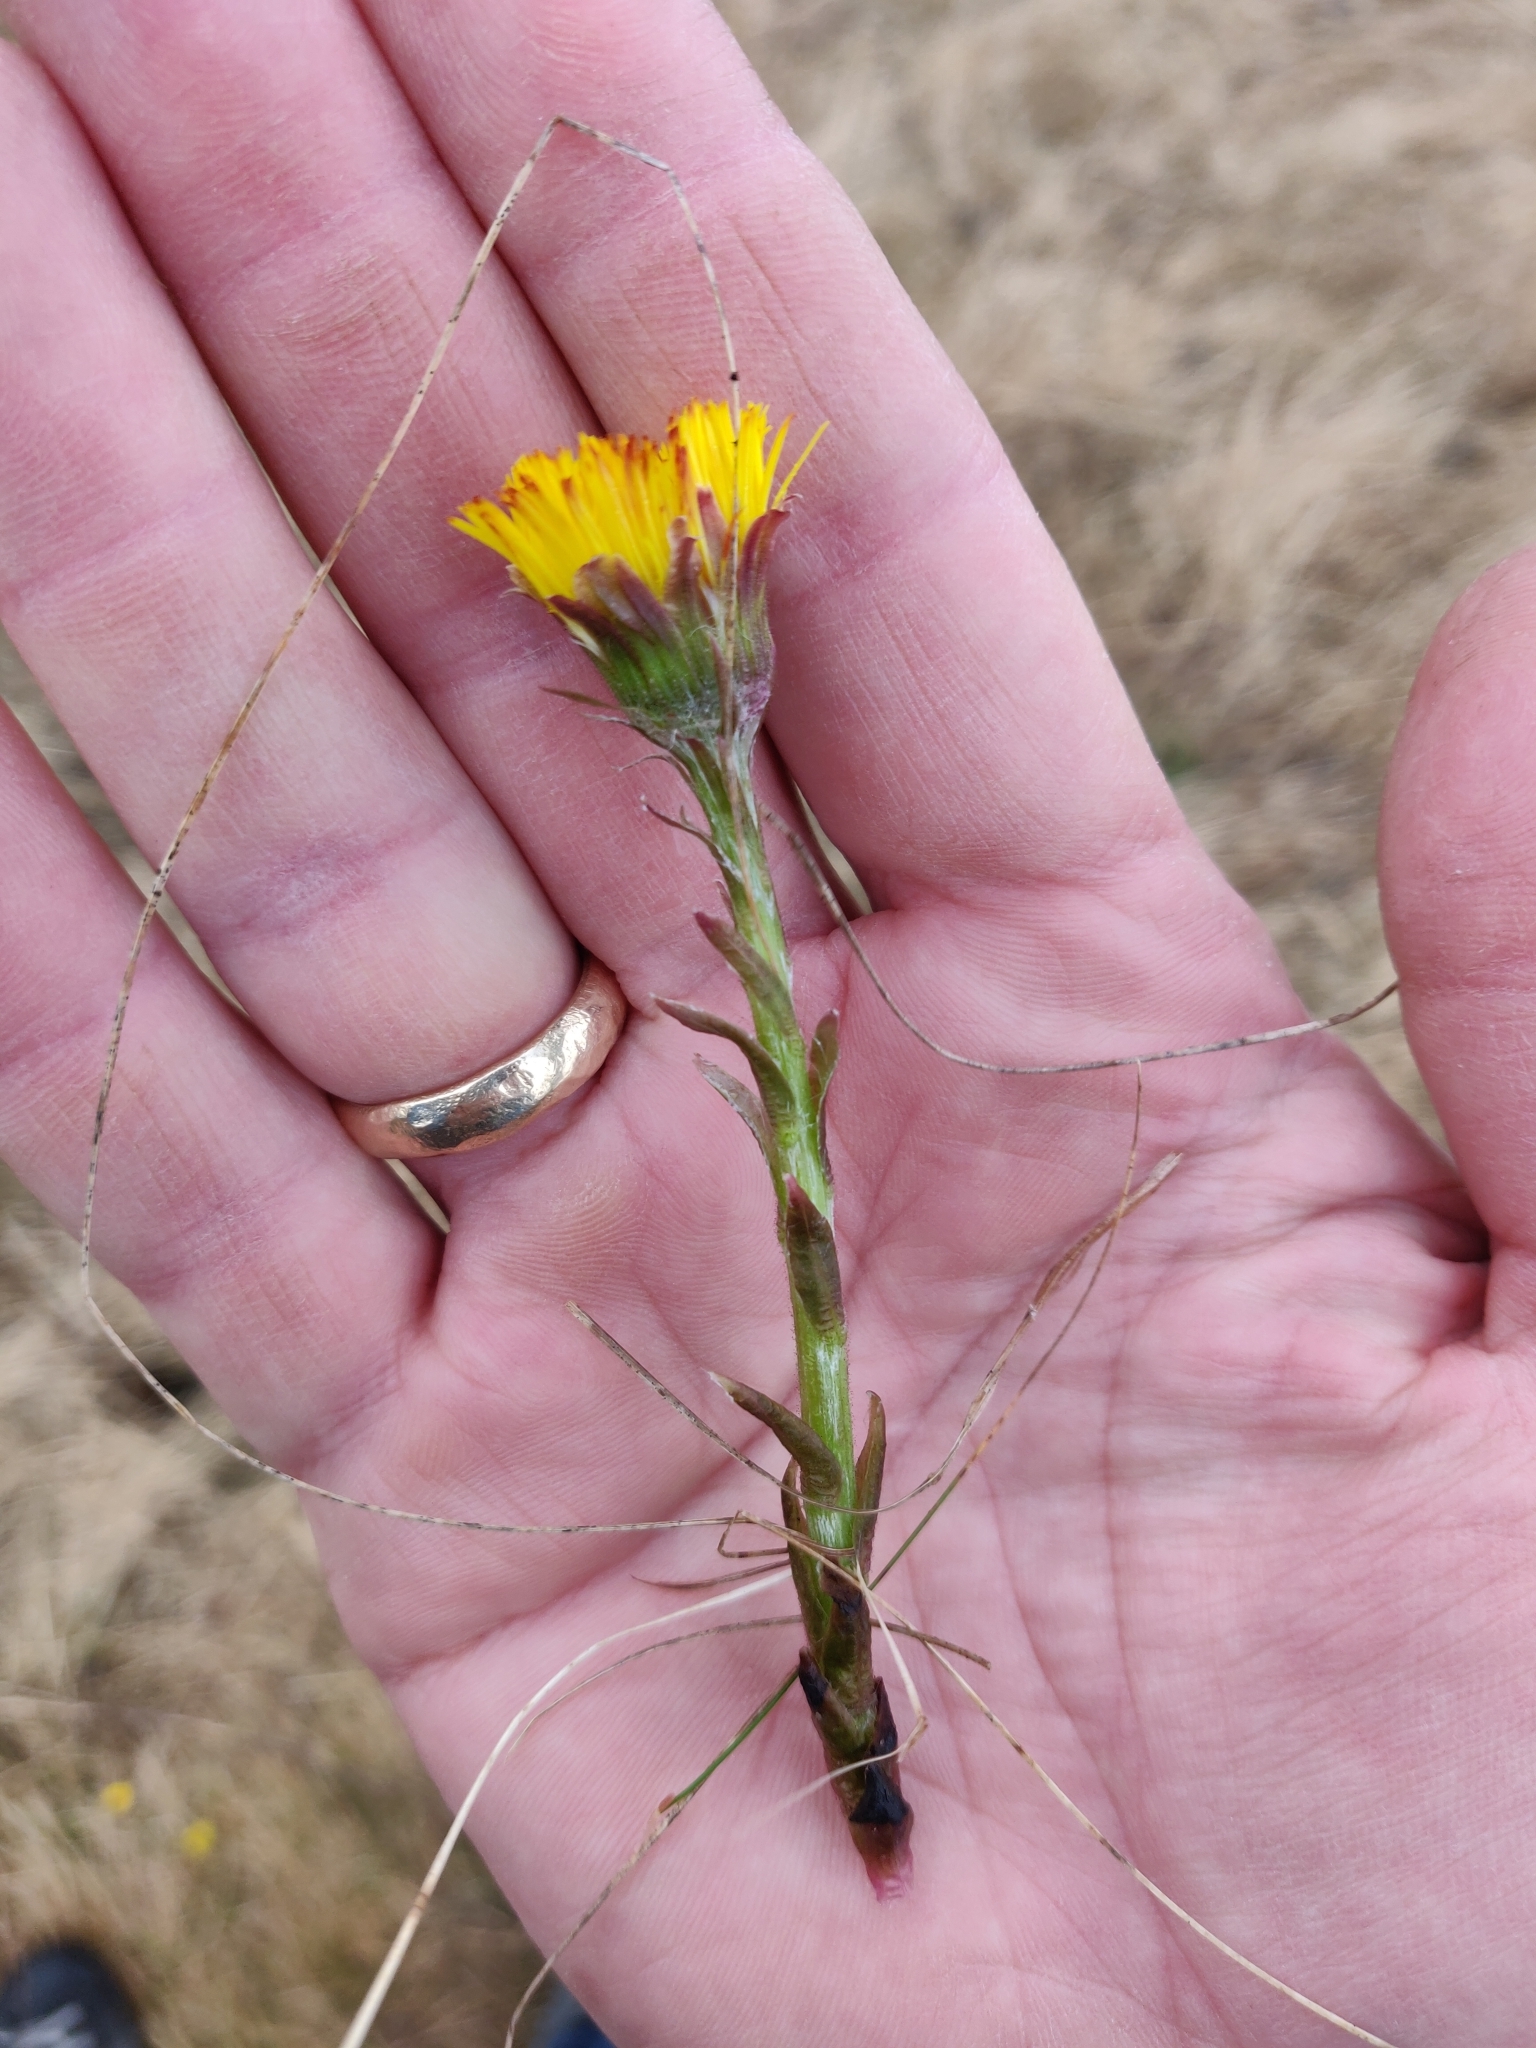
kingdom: Plantae
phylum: Tracheophyta
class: Magnoliopsida
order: Asterales
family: Asteraceae
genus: Tussilago
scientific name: Tussilago farfara
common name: Coltsfoot
